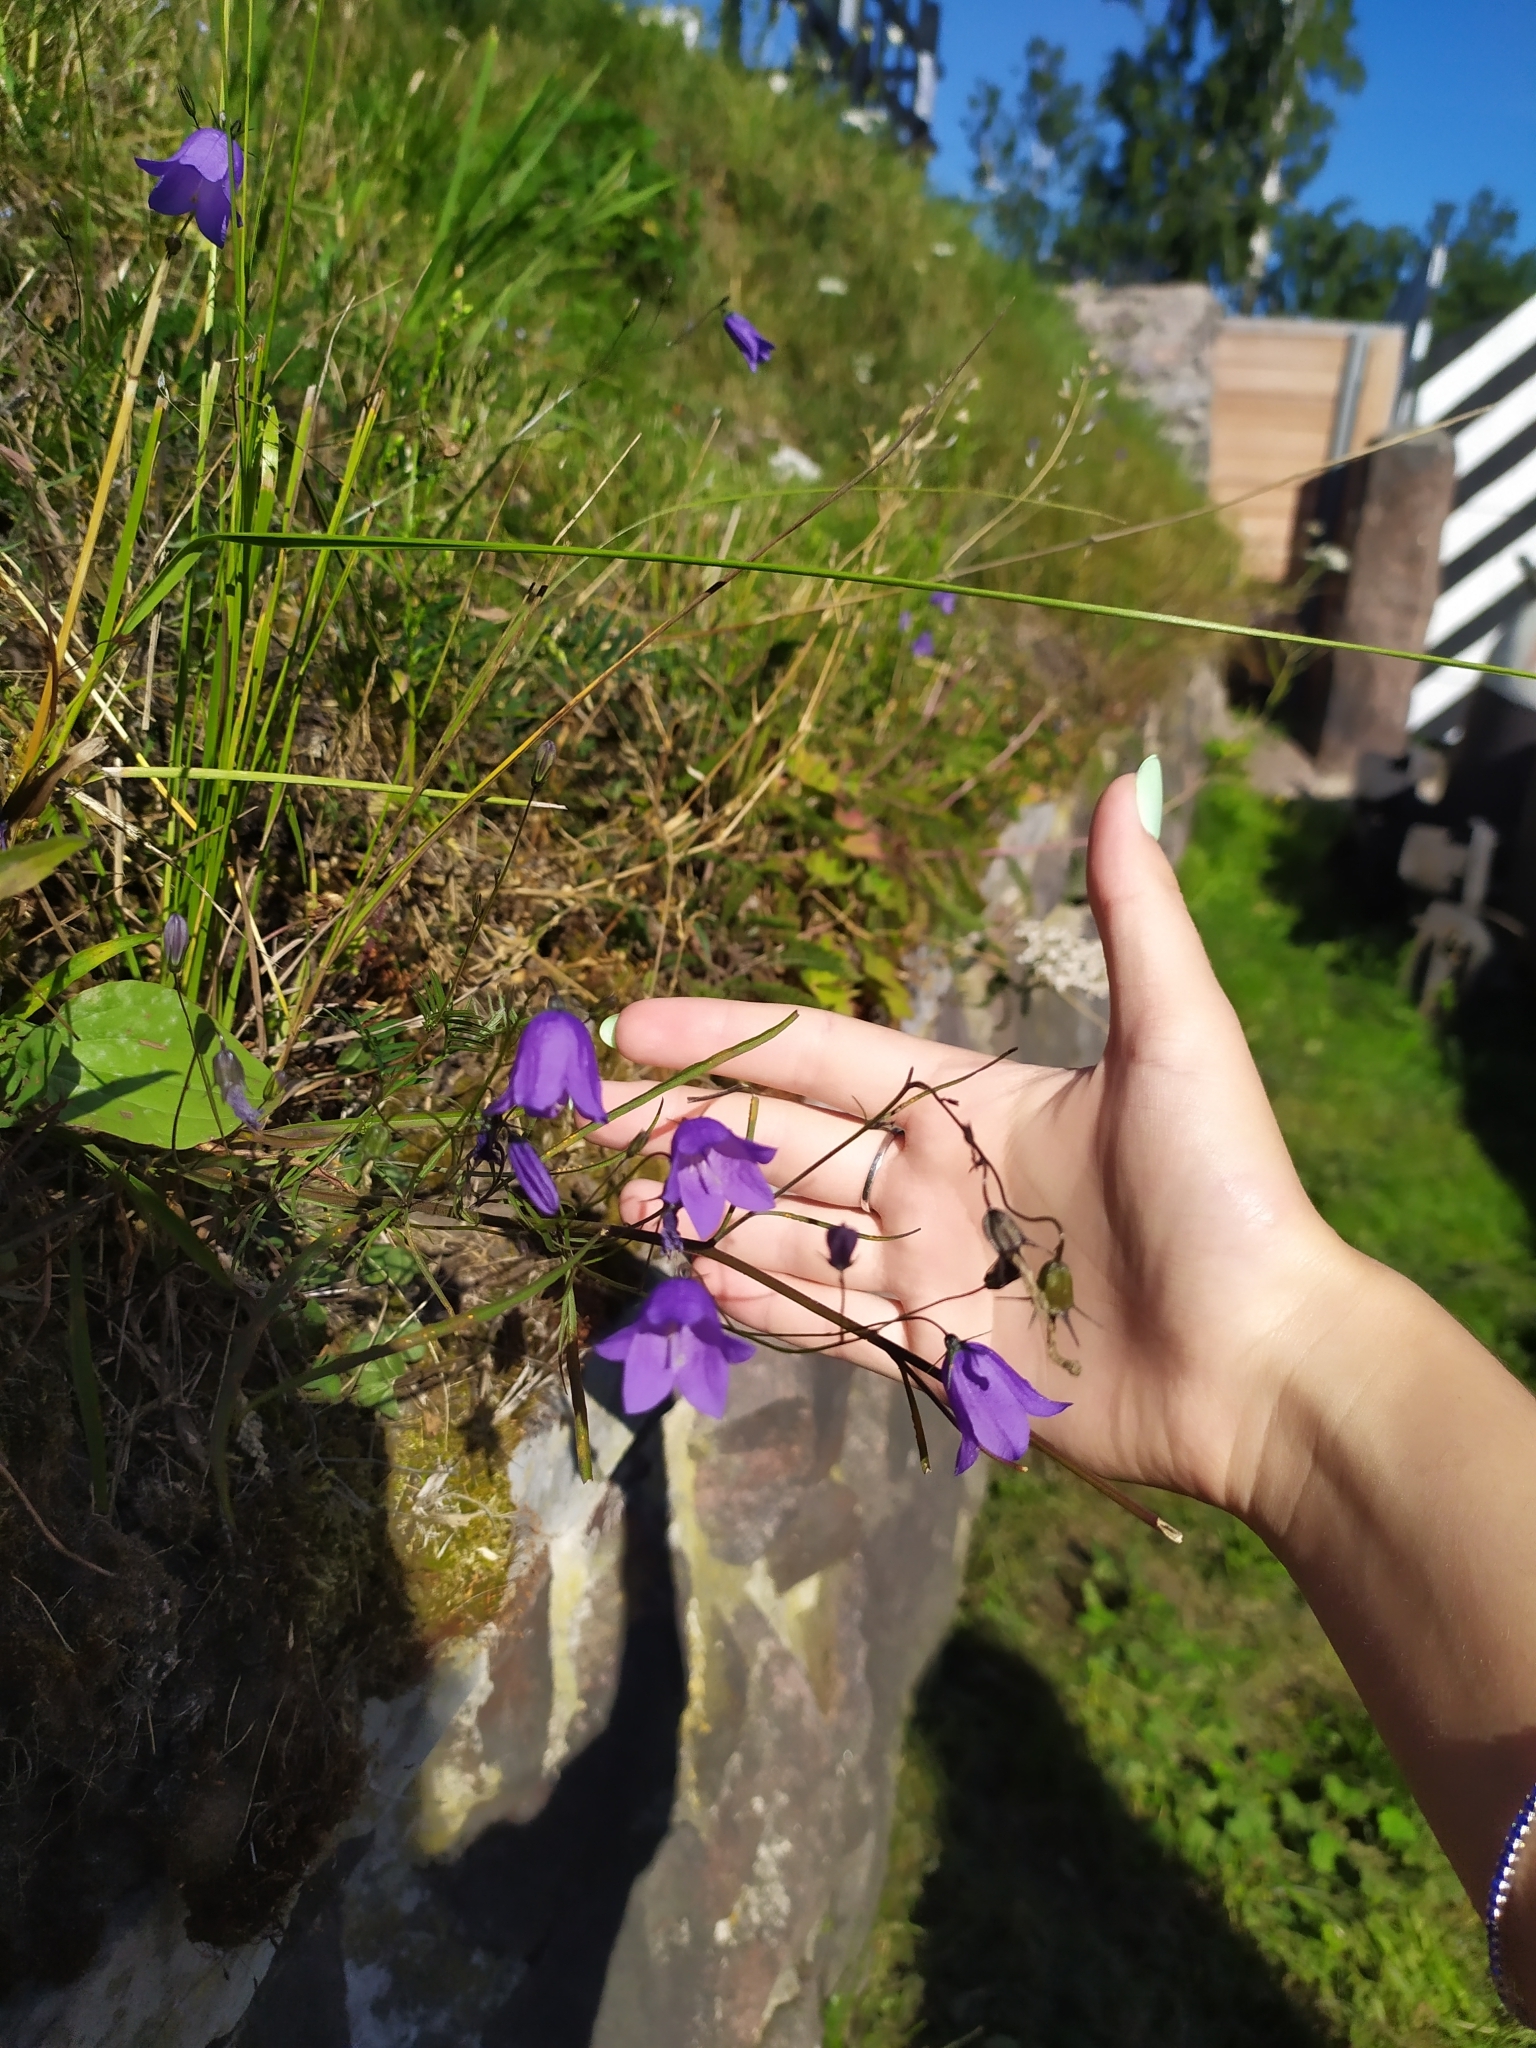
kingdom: Plantae
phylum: Tracheophyta
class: Magnoliopsida
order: Asterales
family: Campanulaceae
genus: Campanula
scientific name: Campanula rotundifolia
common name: Harebell
